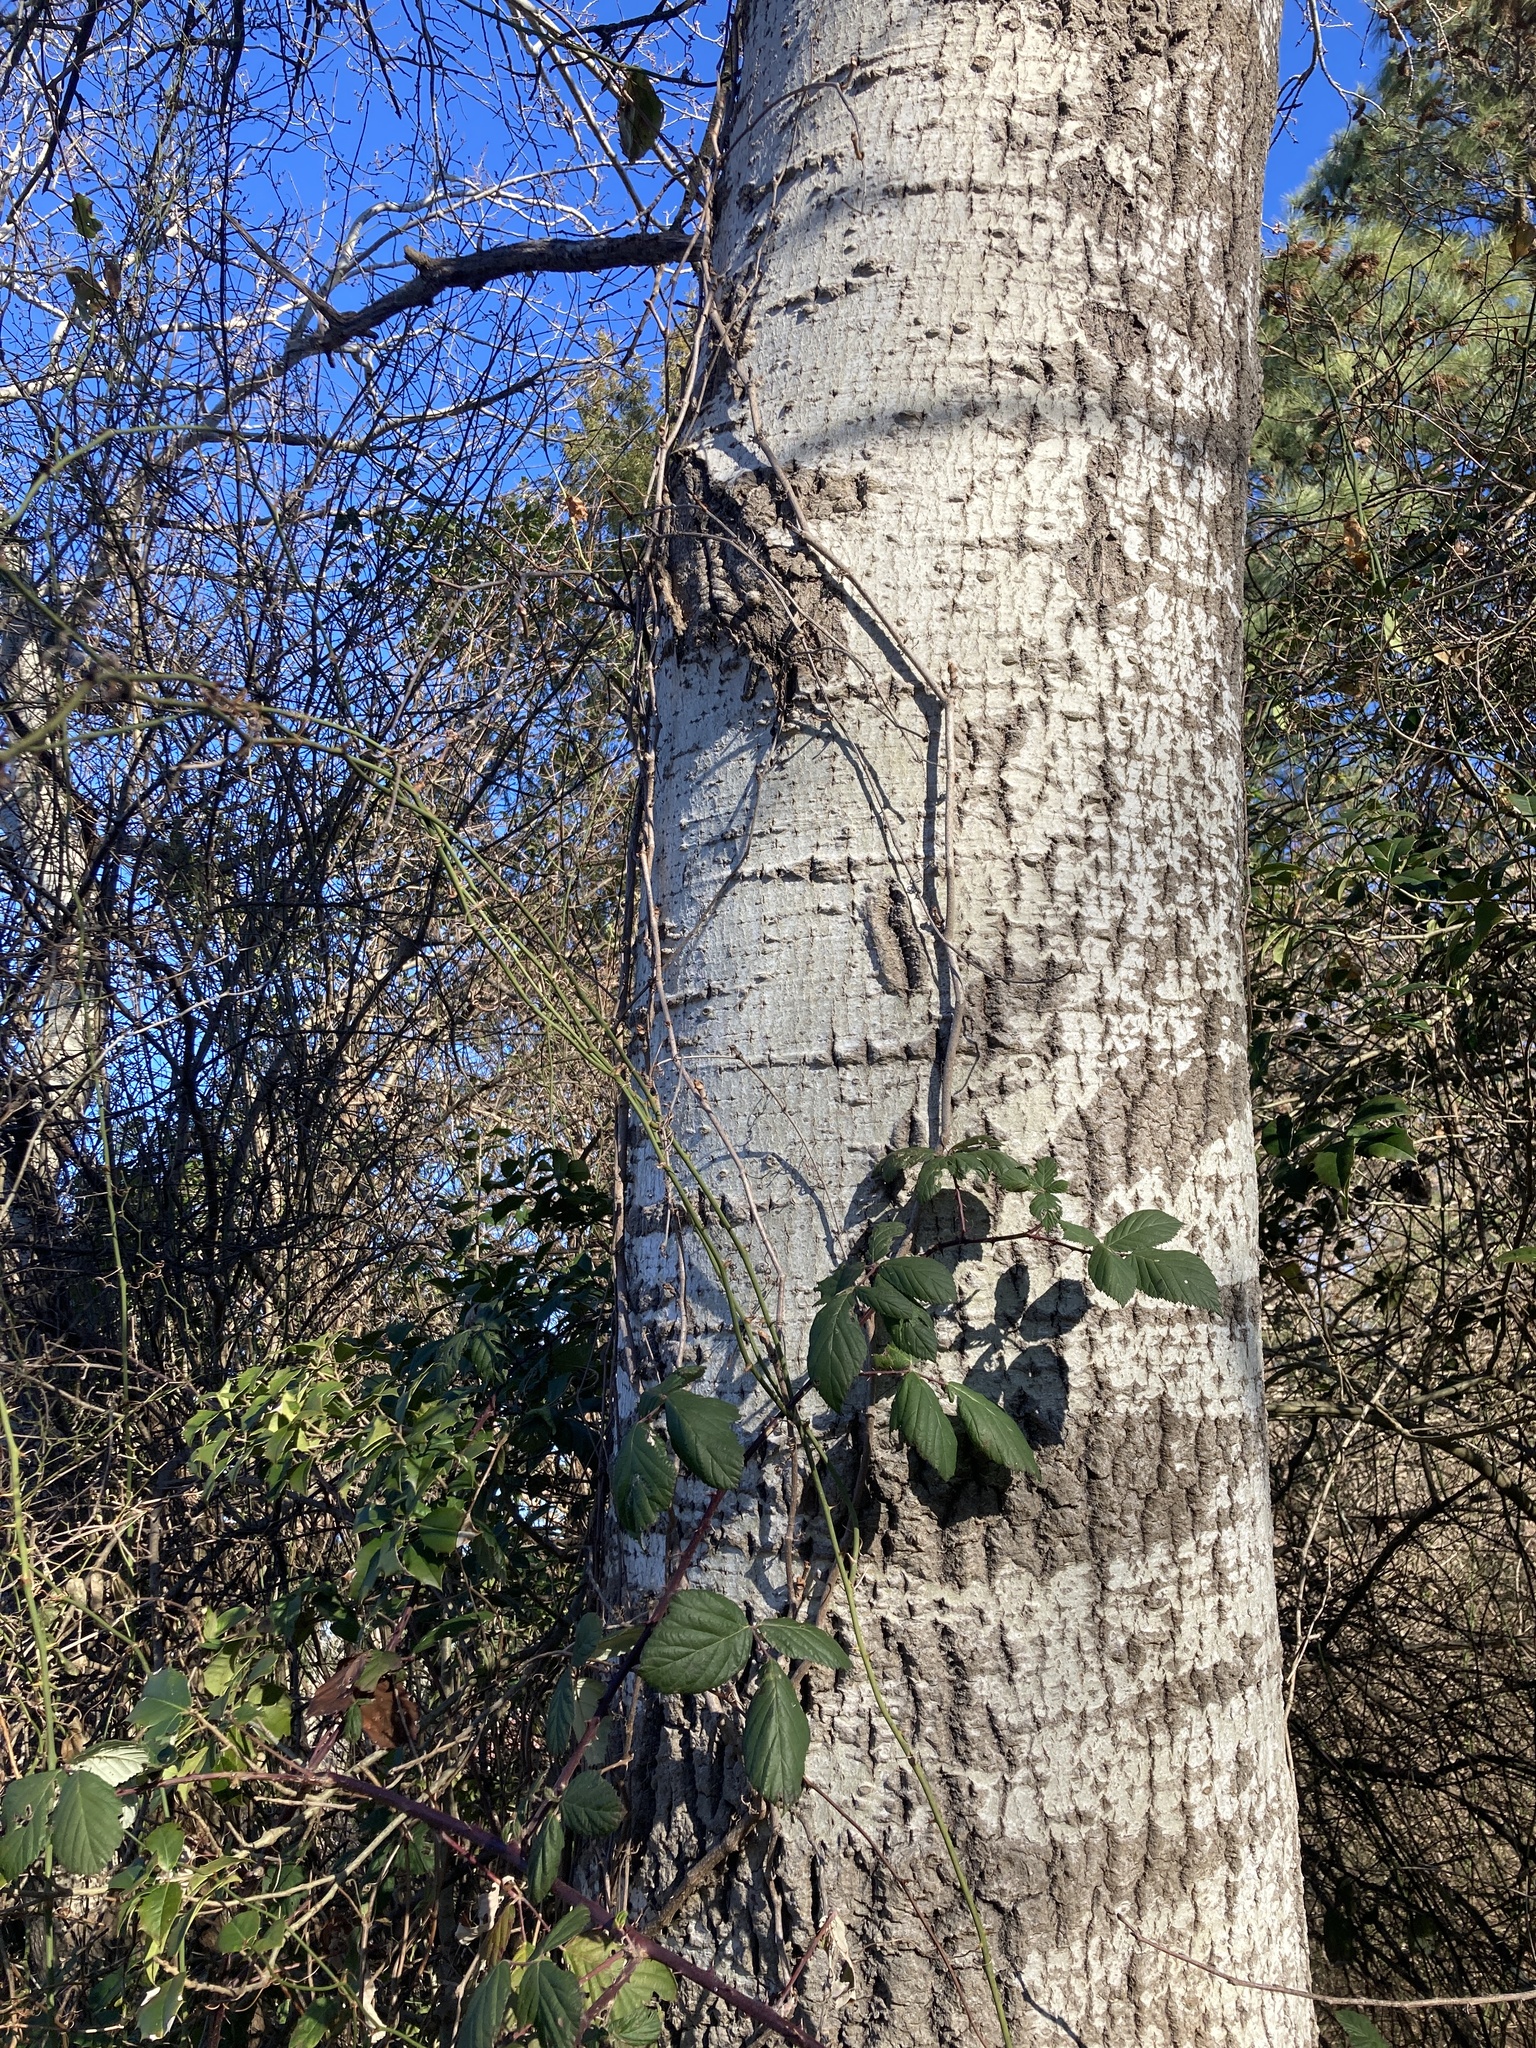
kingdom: Plantae
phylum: Tracheophyta
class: Magnoliopsida
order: Malpighiales
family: Salicaceae
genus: Populus
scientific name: Populus alba
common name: White poplar
